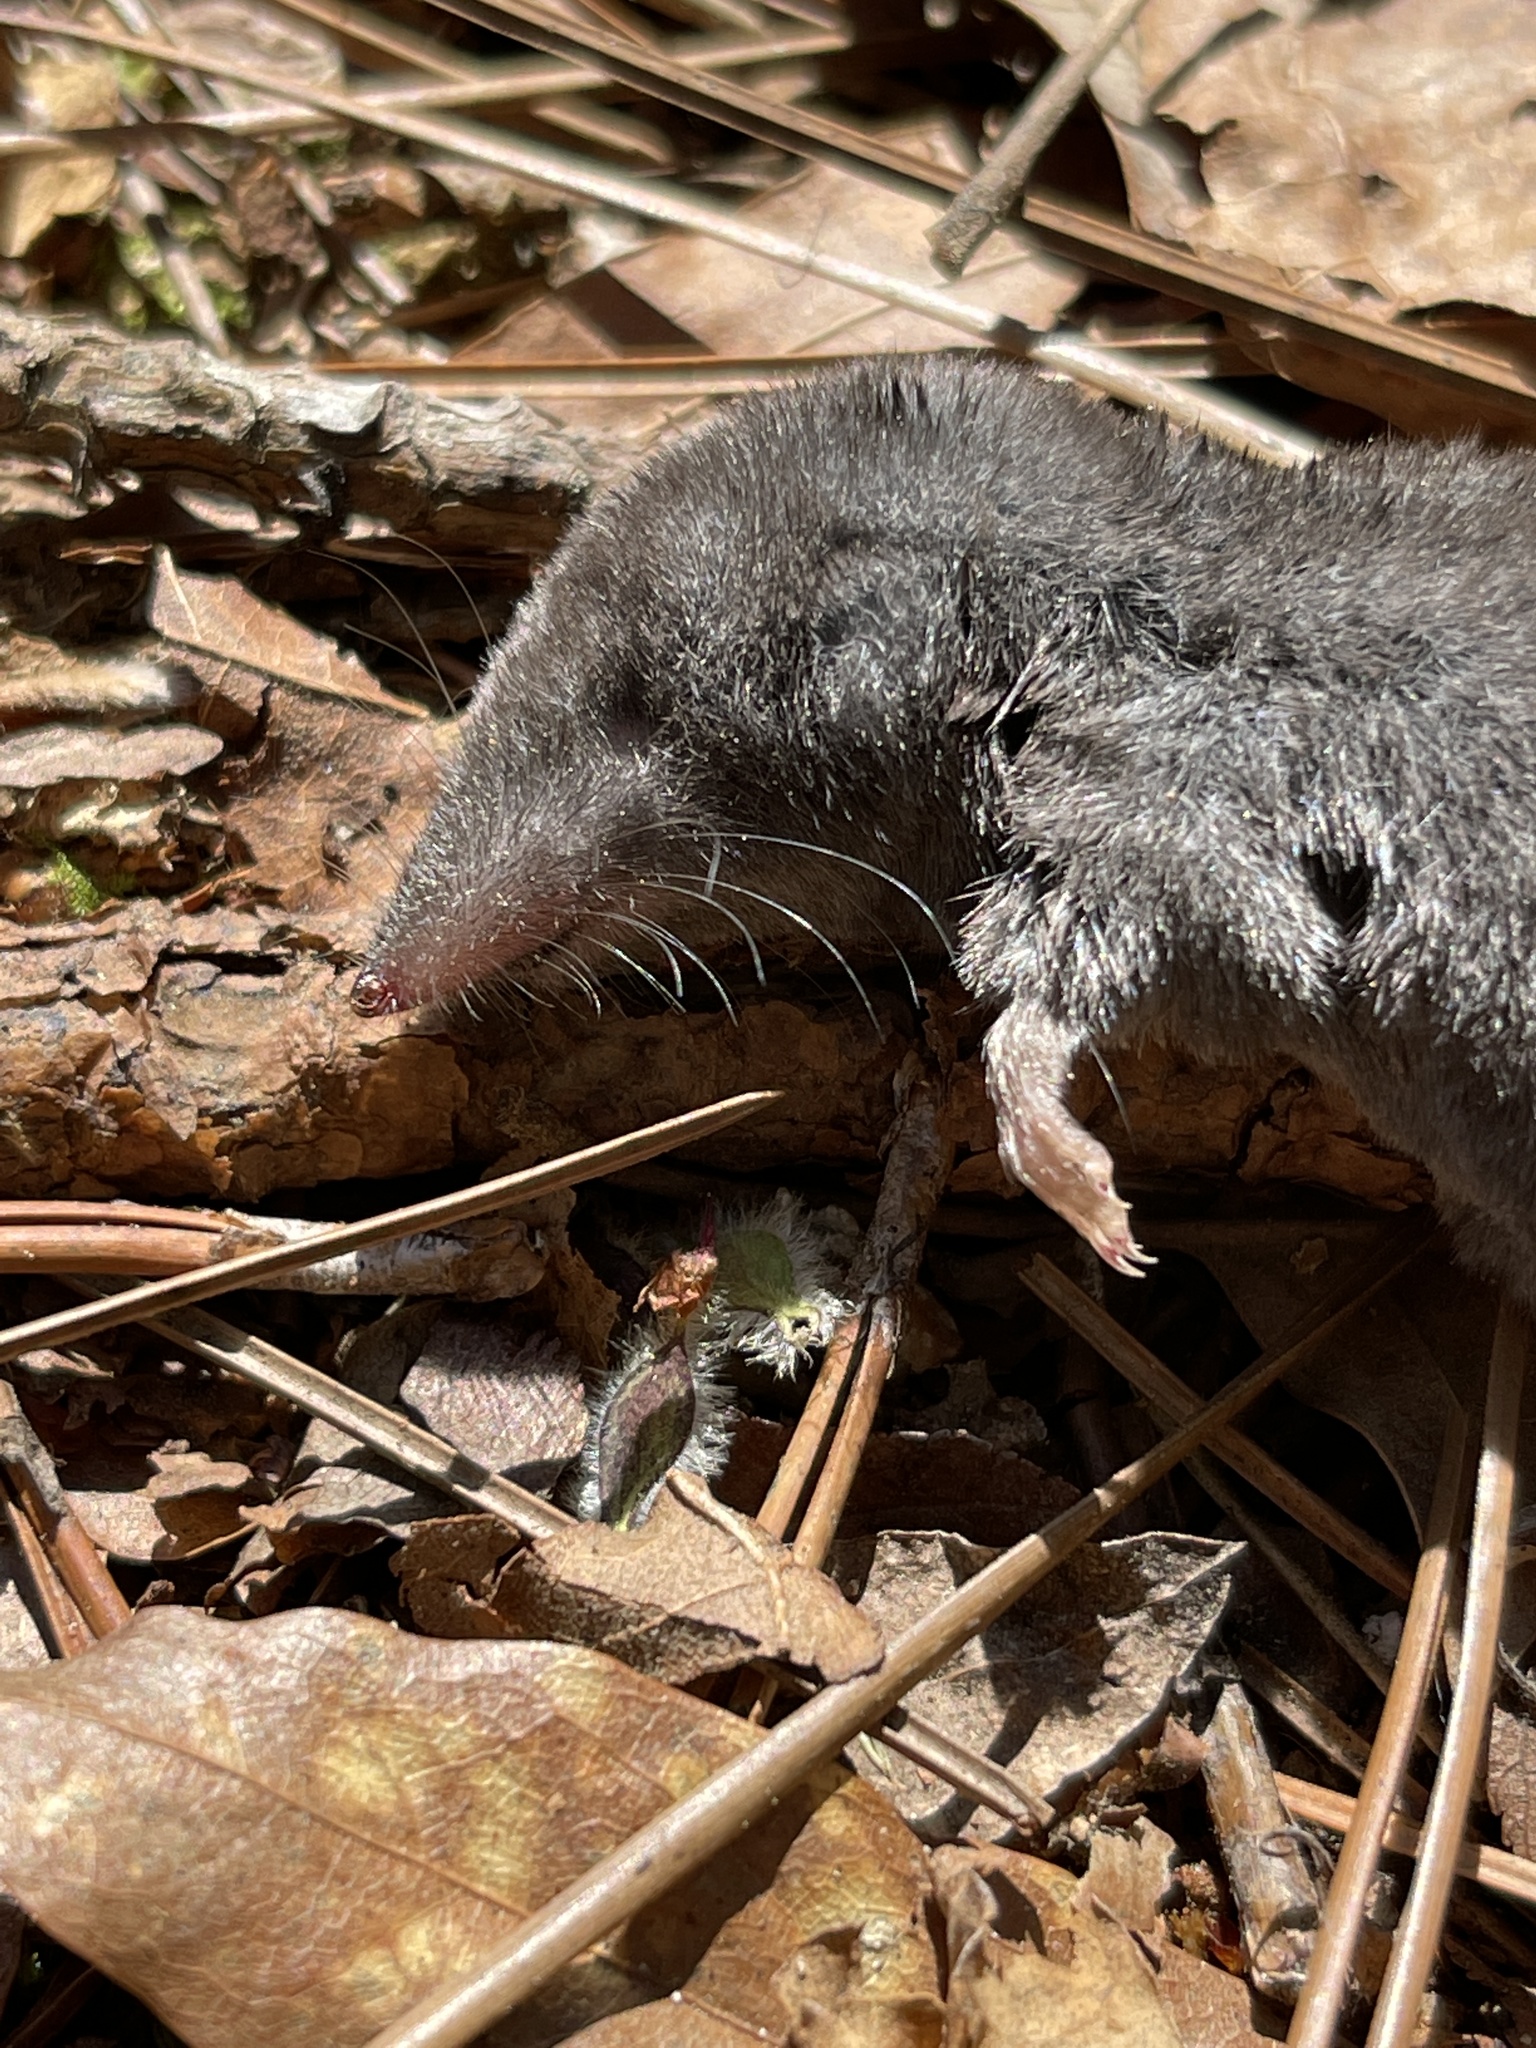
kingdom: Animalia
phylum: Chordata
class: Mammalia
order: Soricomorpha
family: Soricidae
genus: Blarina
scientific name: Blarina carolinensis
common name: Southern short-tailed shrew
